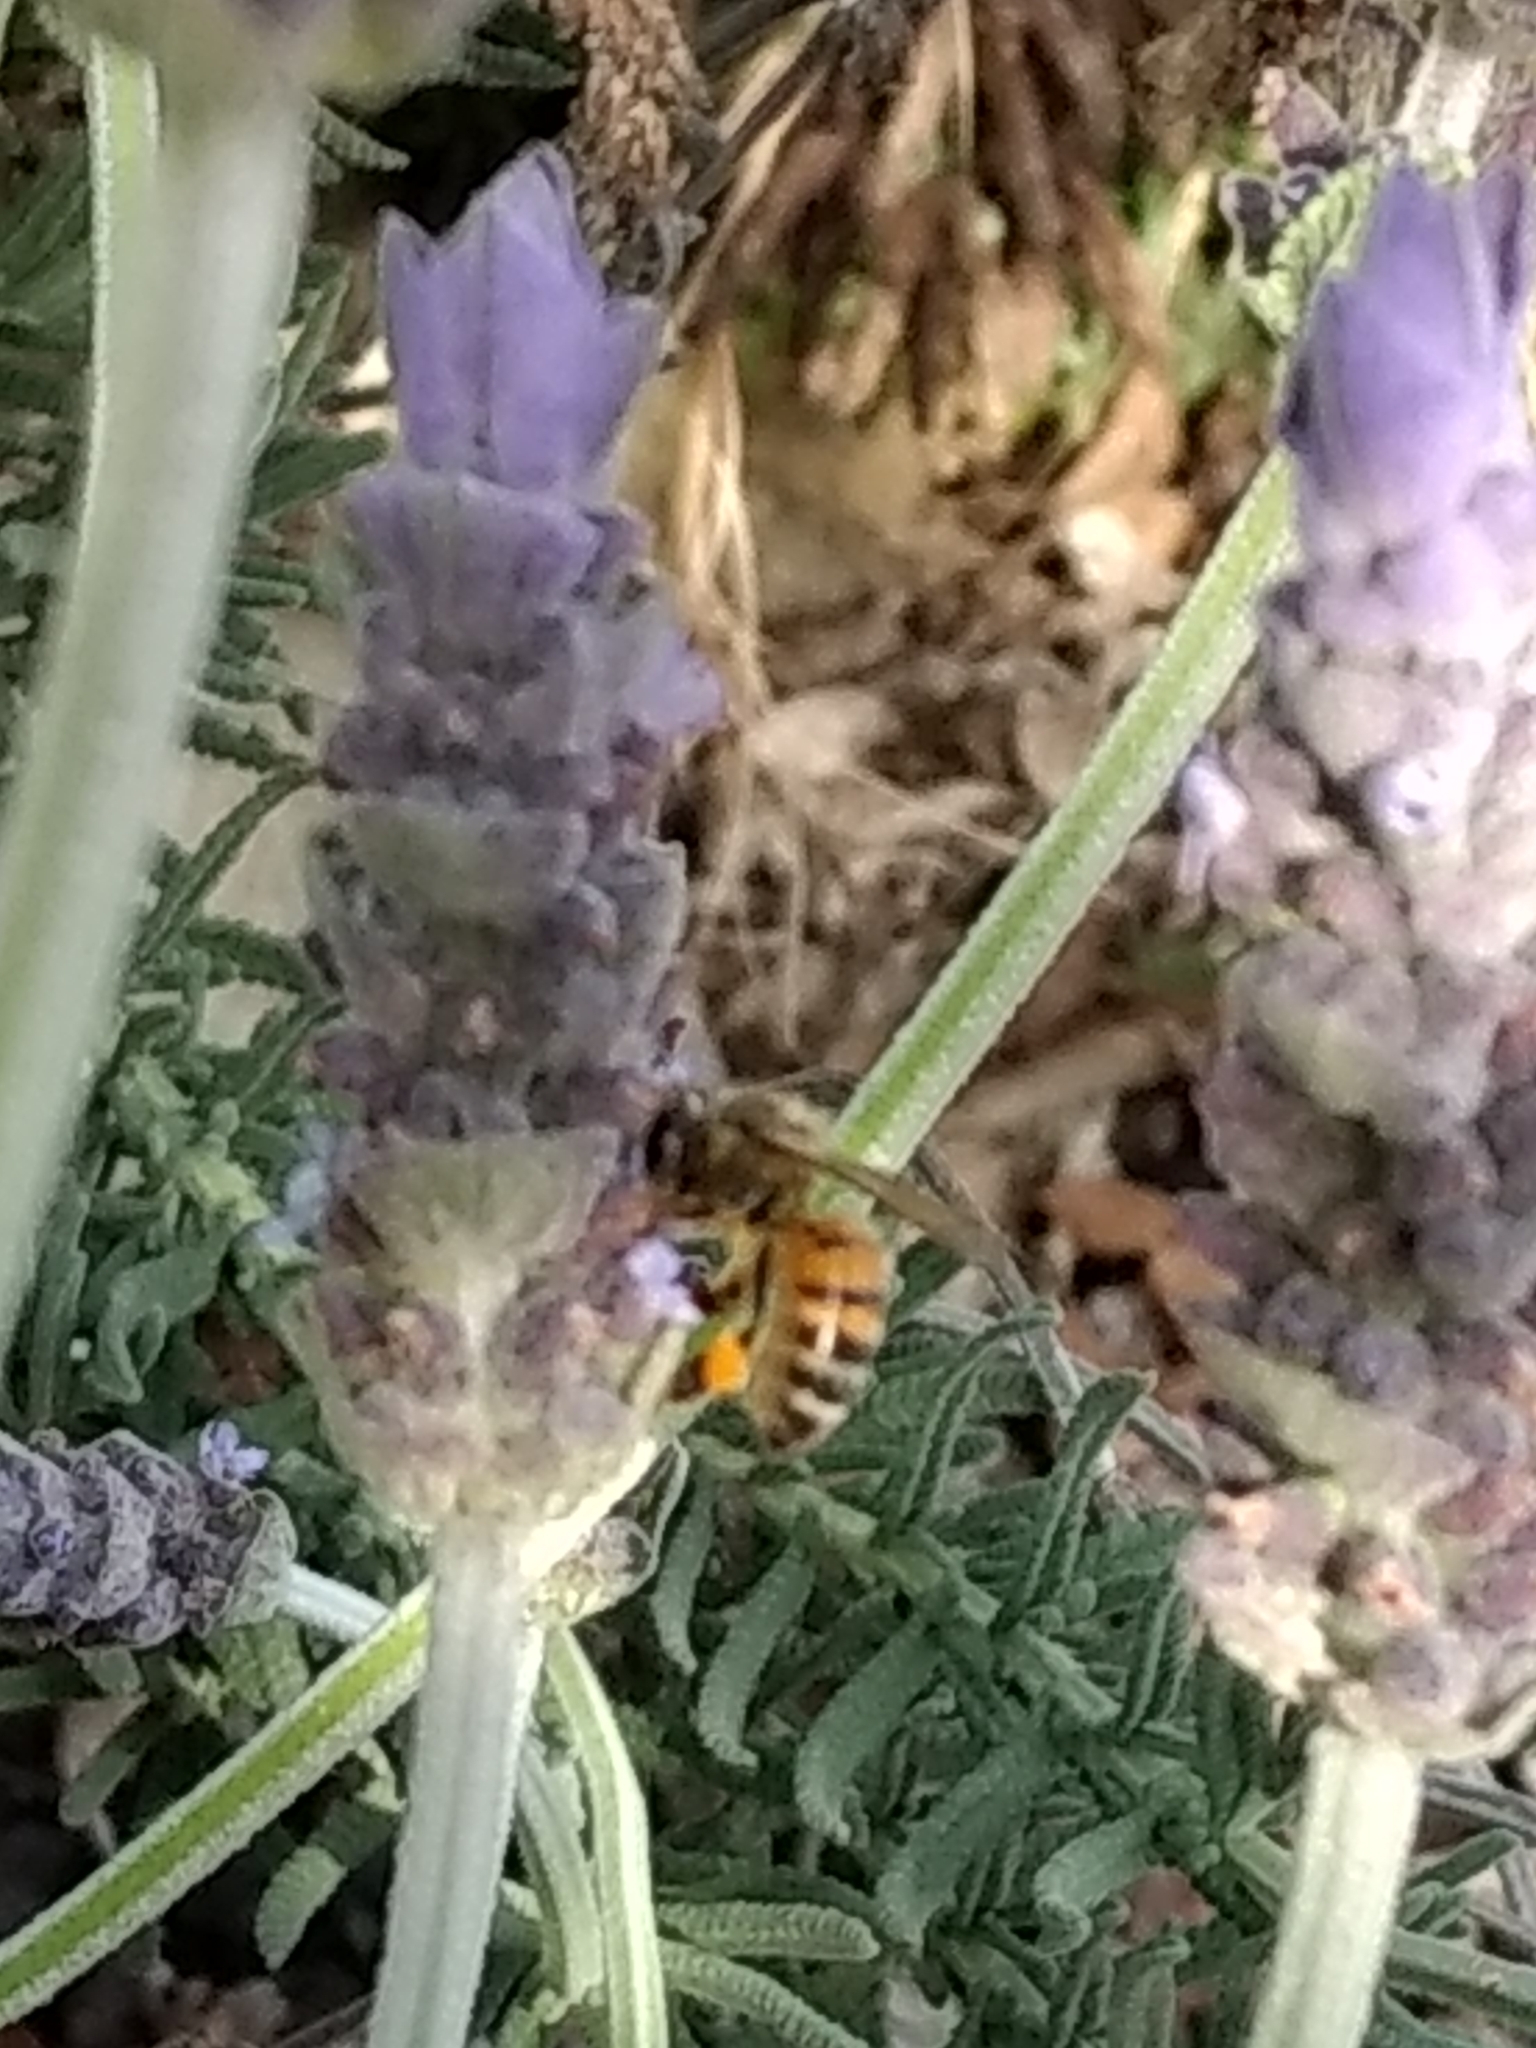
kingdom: Animalia
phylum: Arthropoda
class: Insecta
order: Hymenoptera
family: Apidae
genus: Apis
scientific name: Apis mellifera
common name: Honey bee
